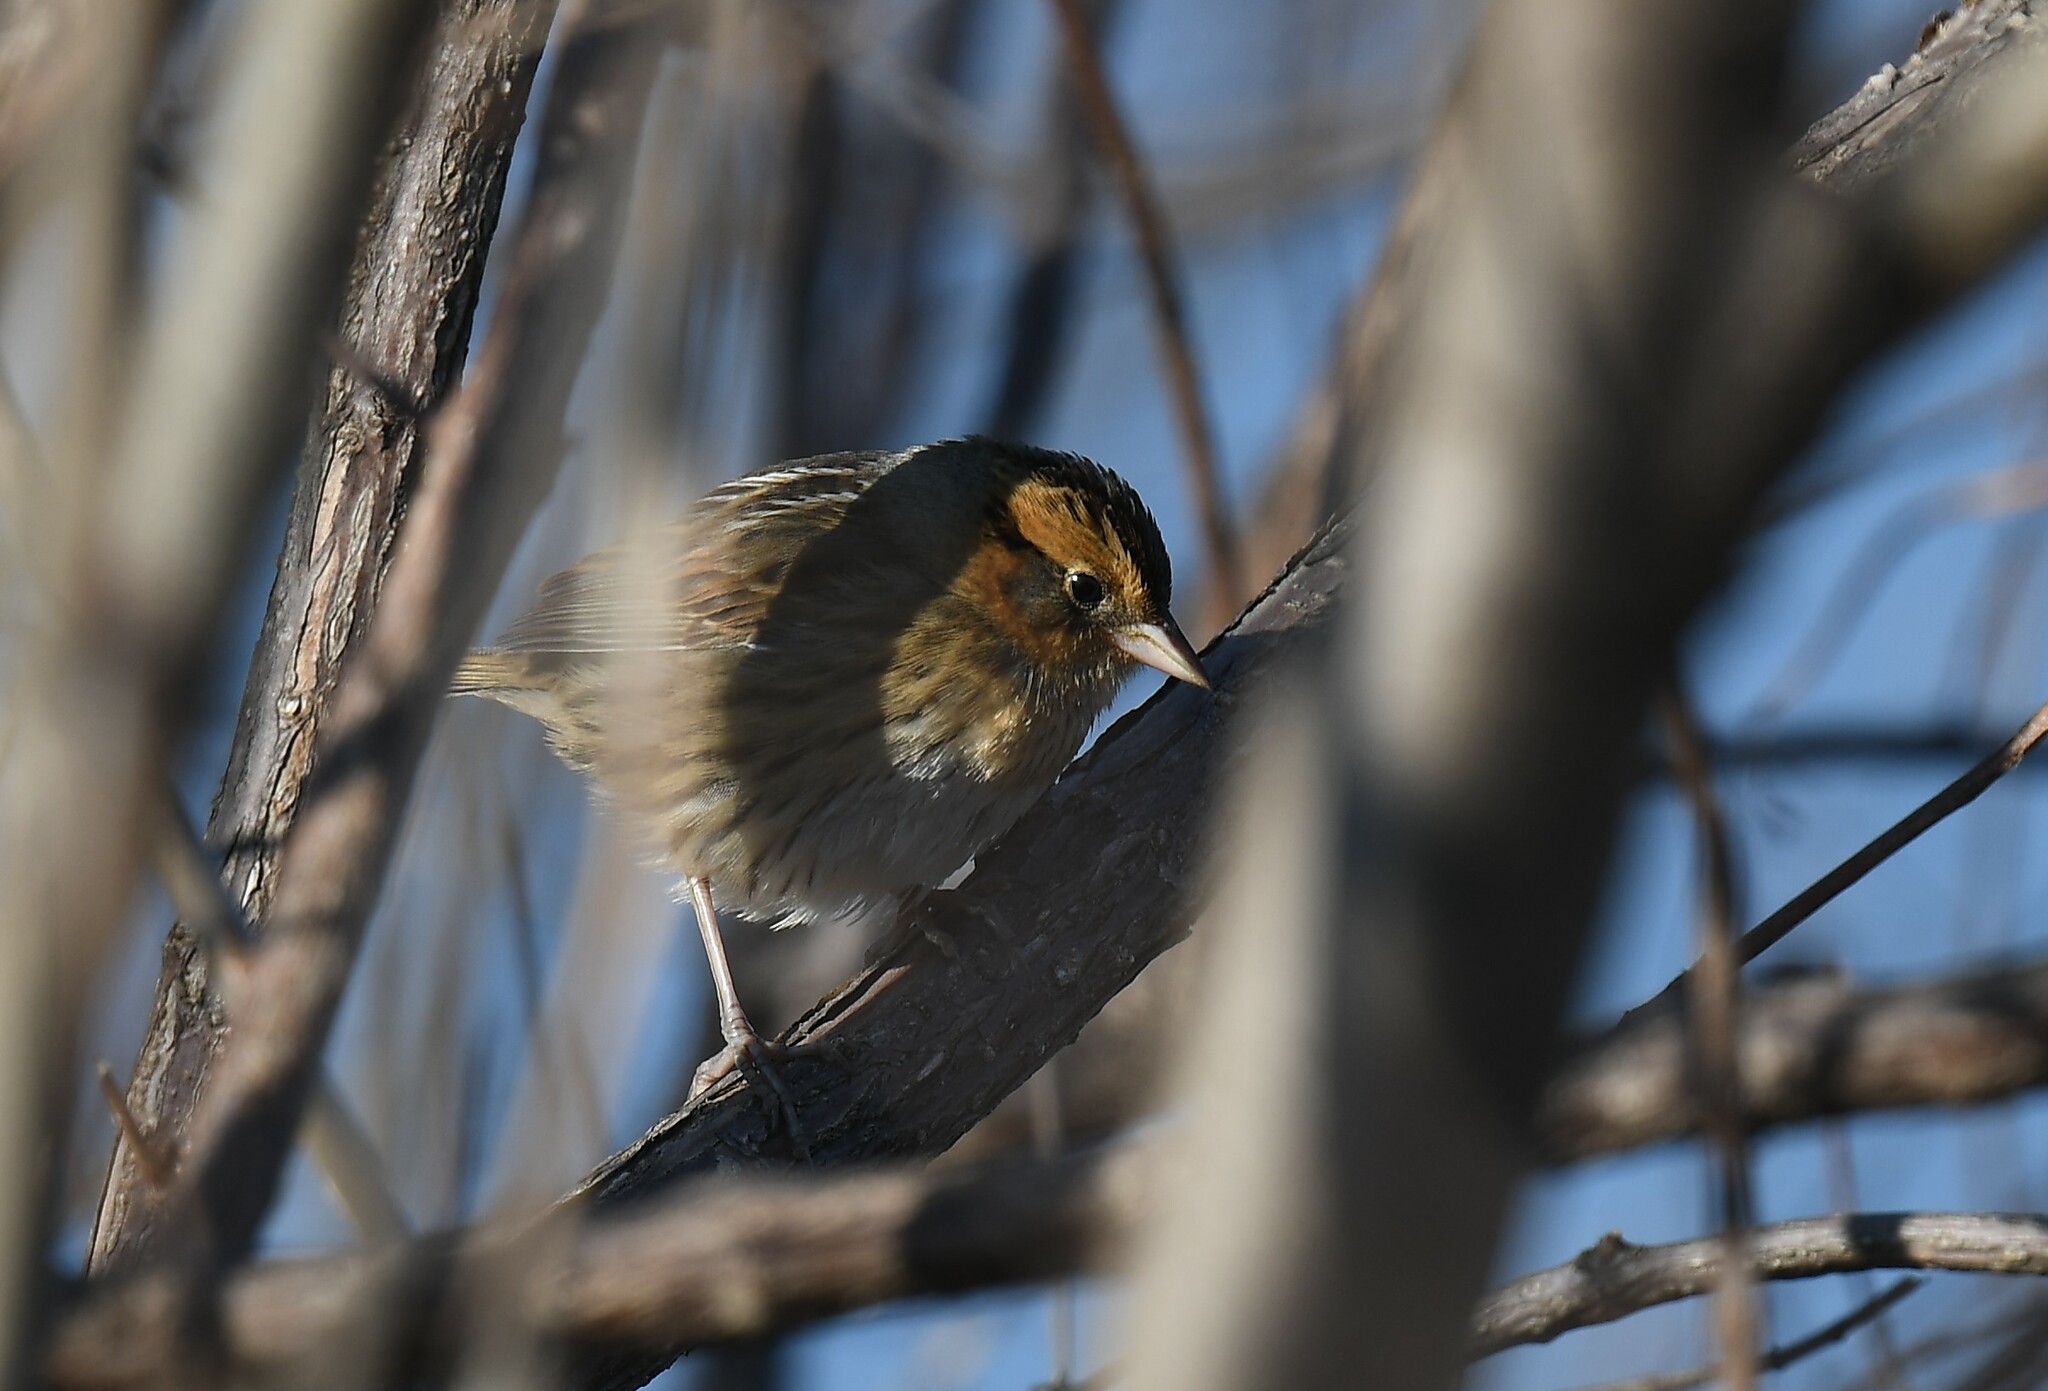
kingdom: Animalia
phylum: Chordata
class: Aves
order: Passeriformes
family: Passerellidae
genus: Ammospiza
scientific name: Ammospiza nelsoni
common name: Nelson's sparrow
